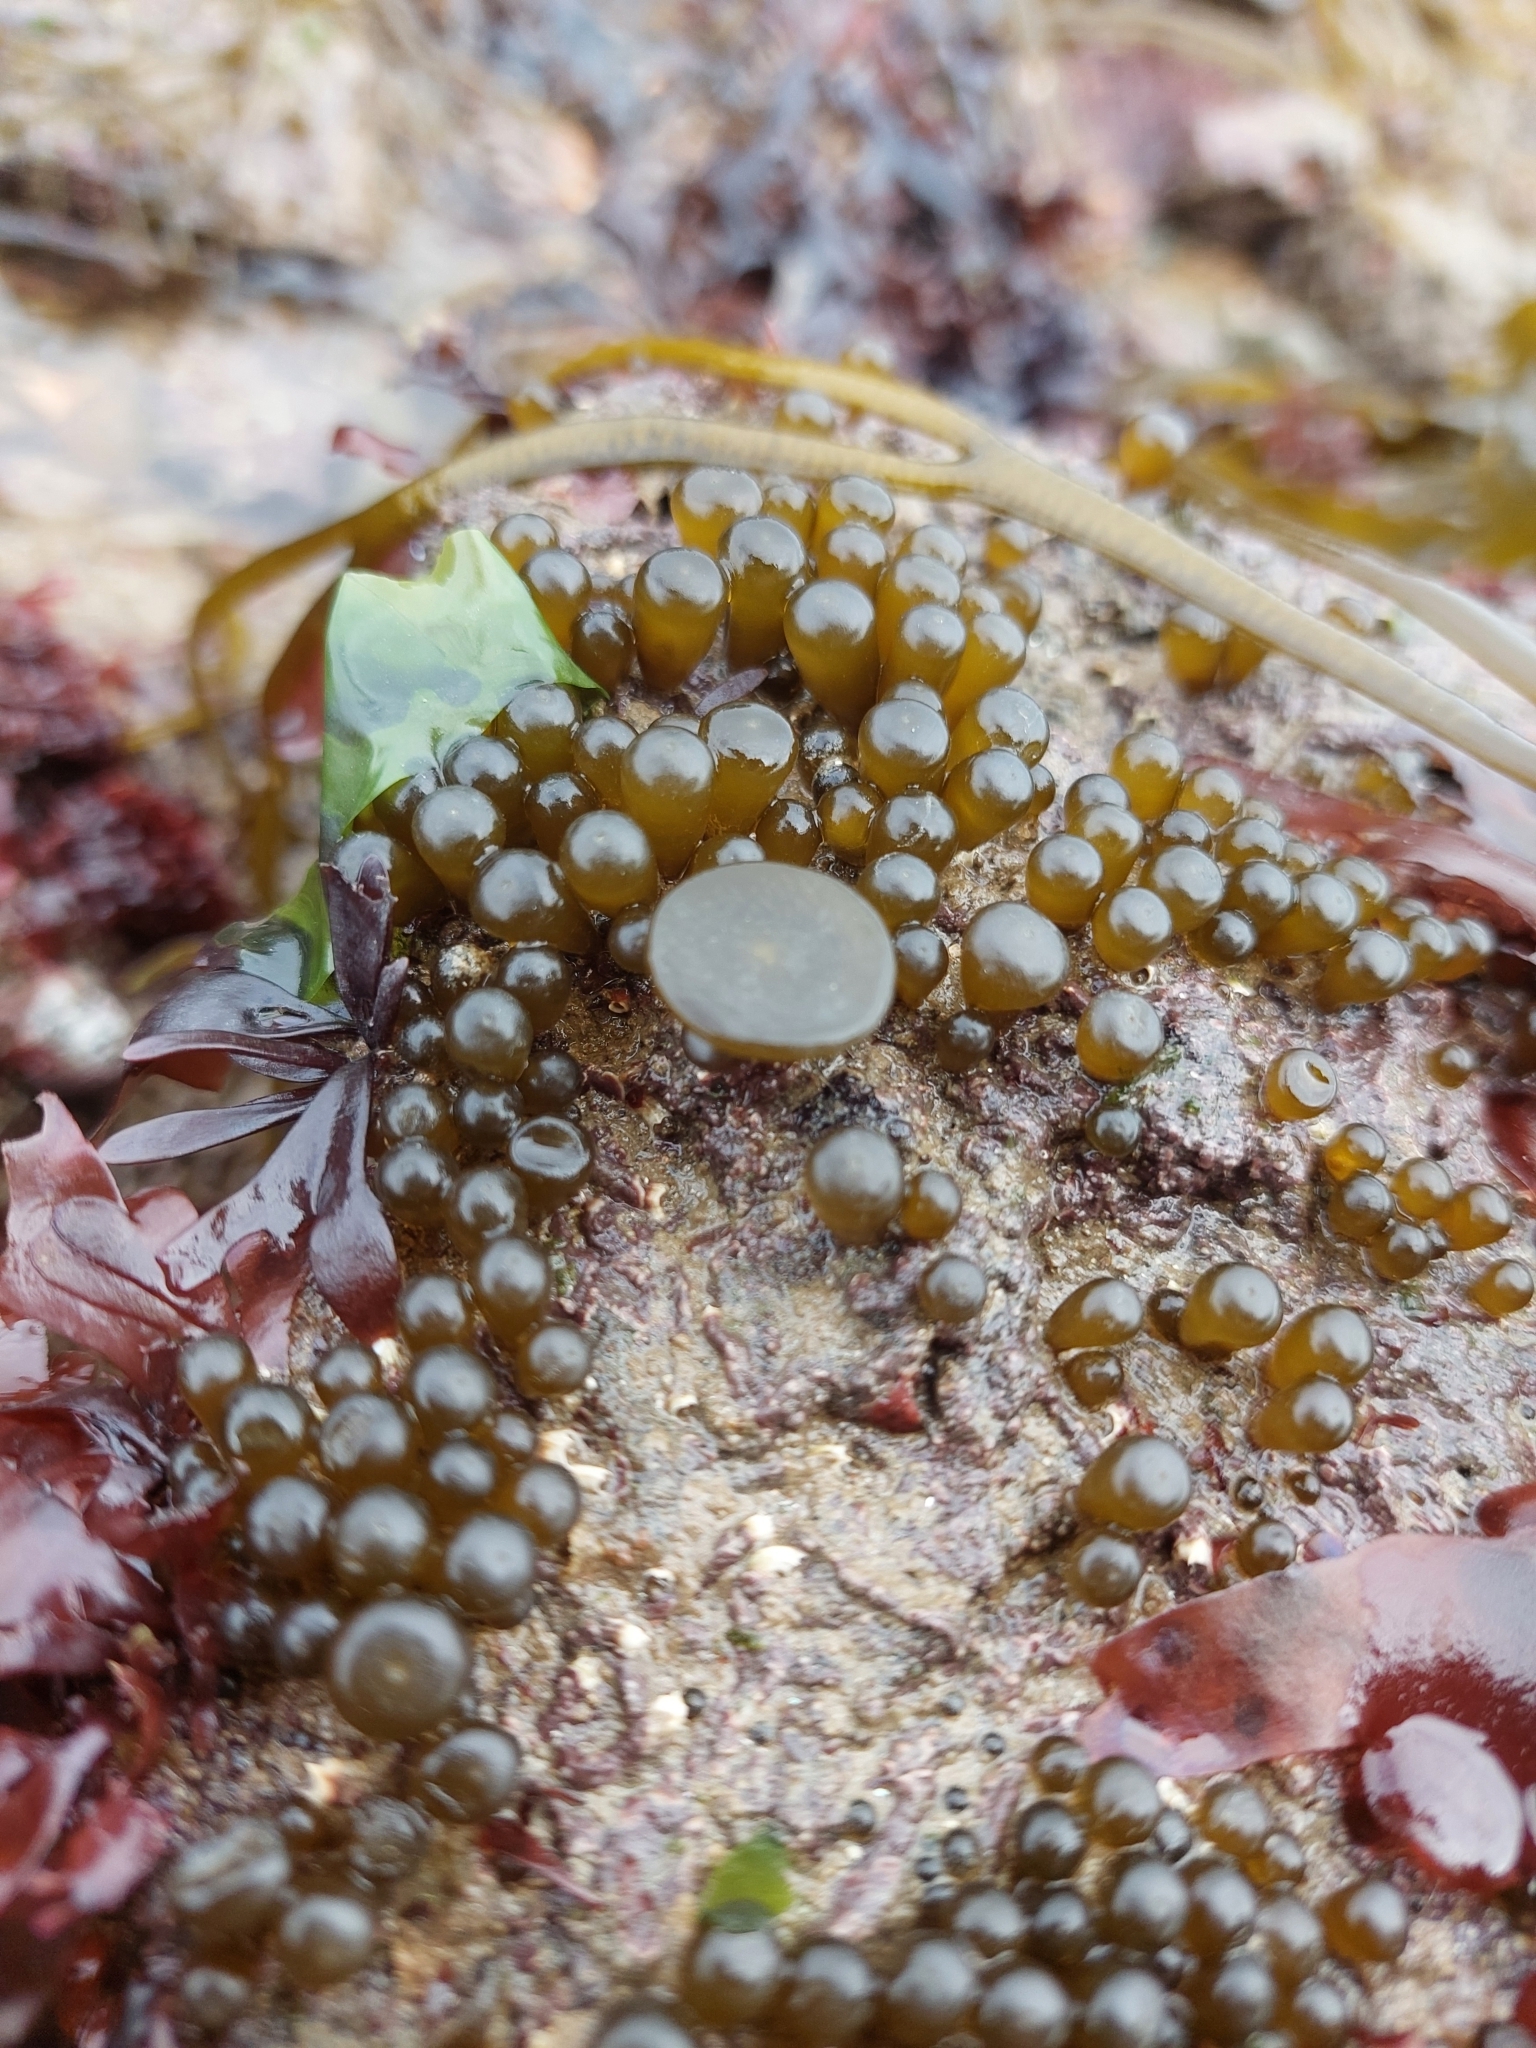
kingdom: Chromista
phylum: Ochrophyta
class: Phaeophyceae
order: Fucales
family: Himanthaliaceae
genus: Himanthalia
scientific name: Himanthalia elongata
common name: Sea-thong
